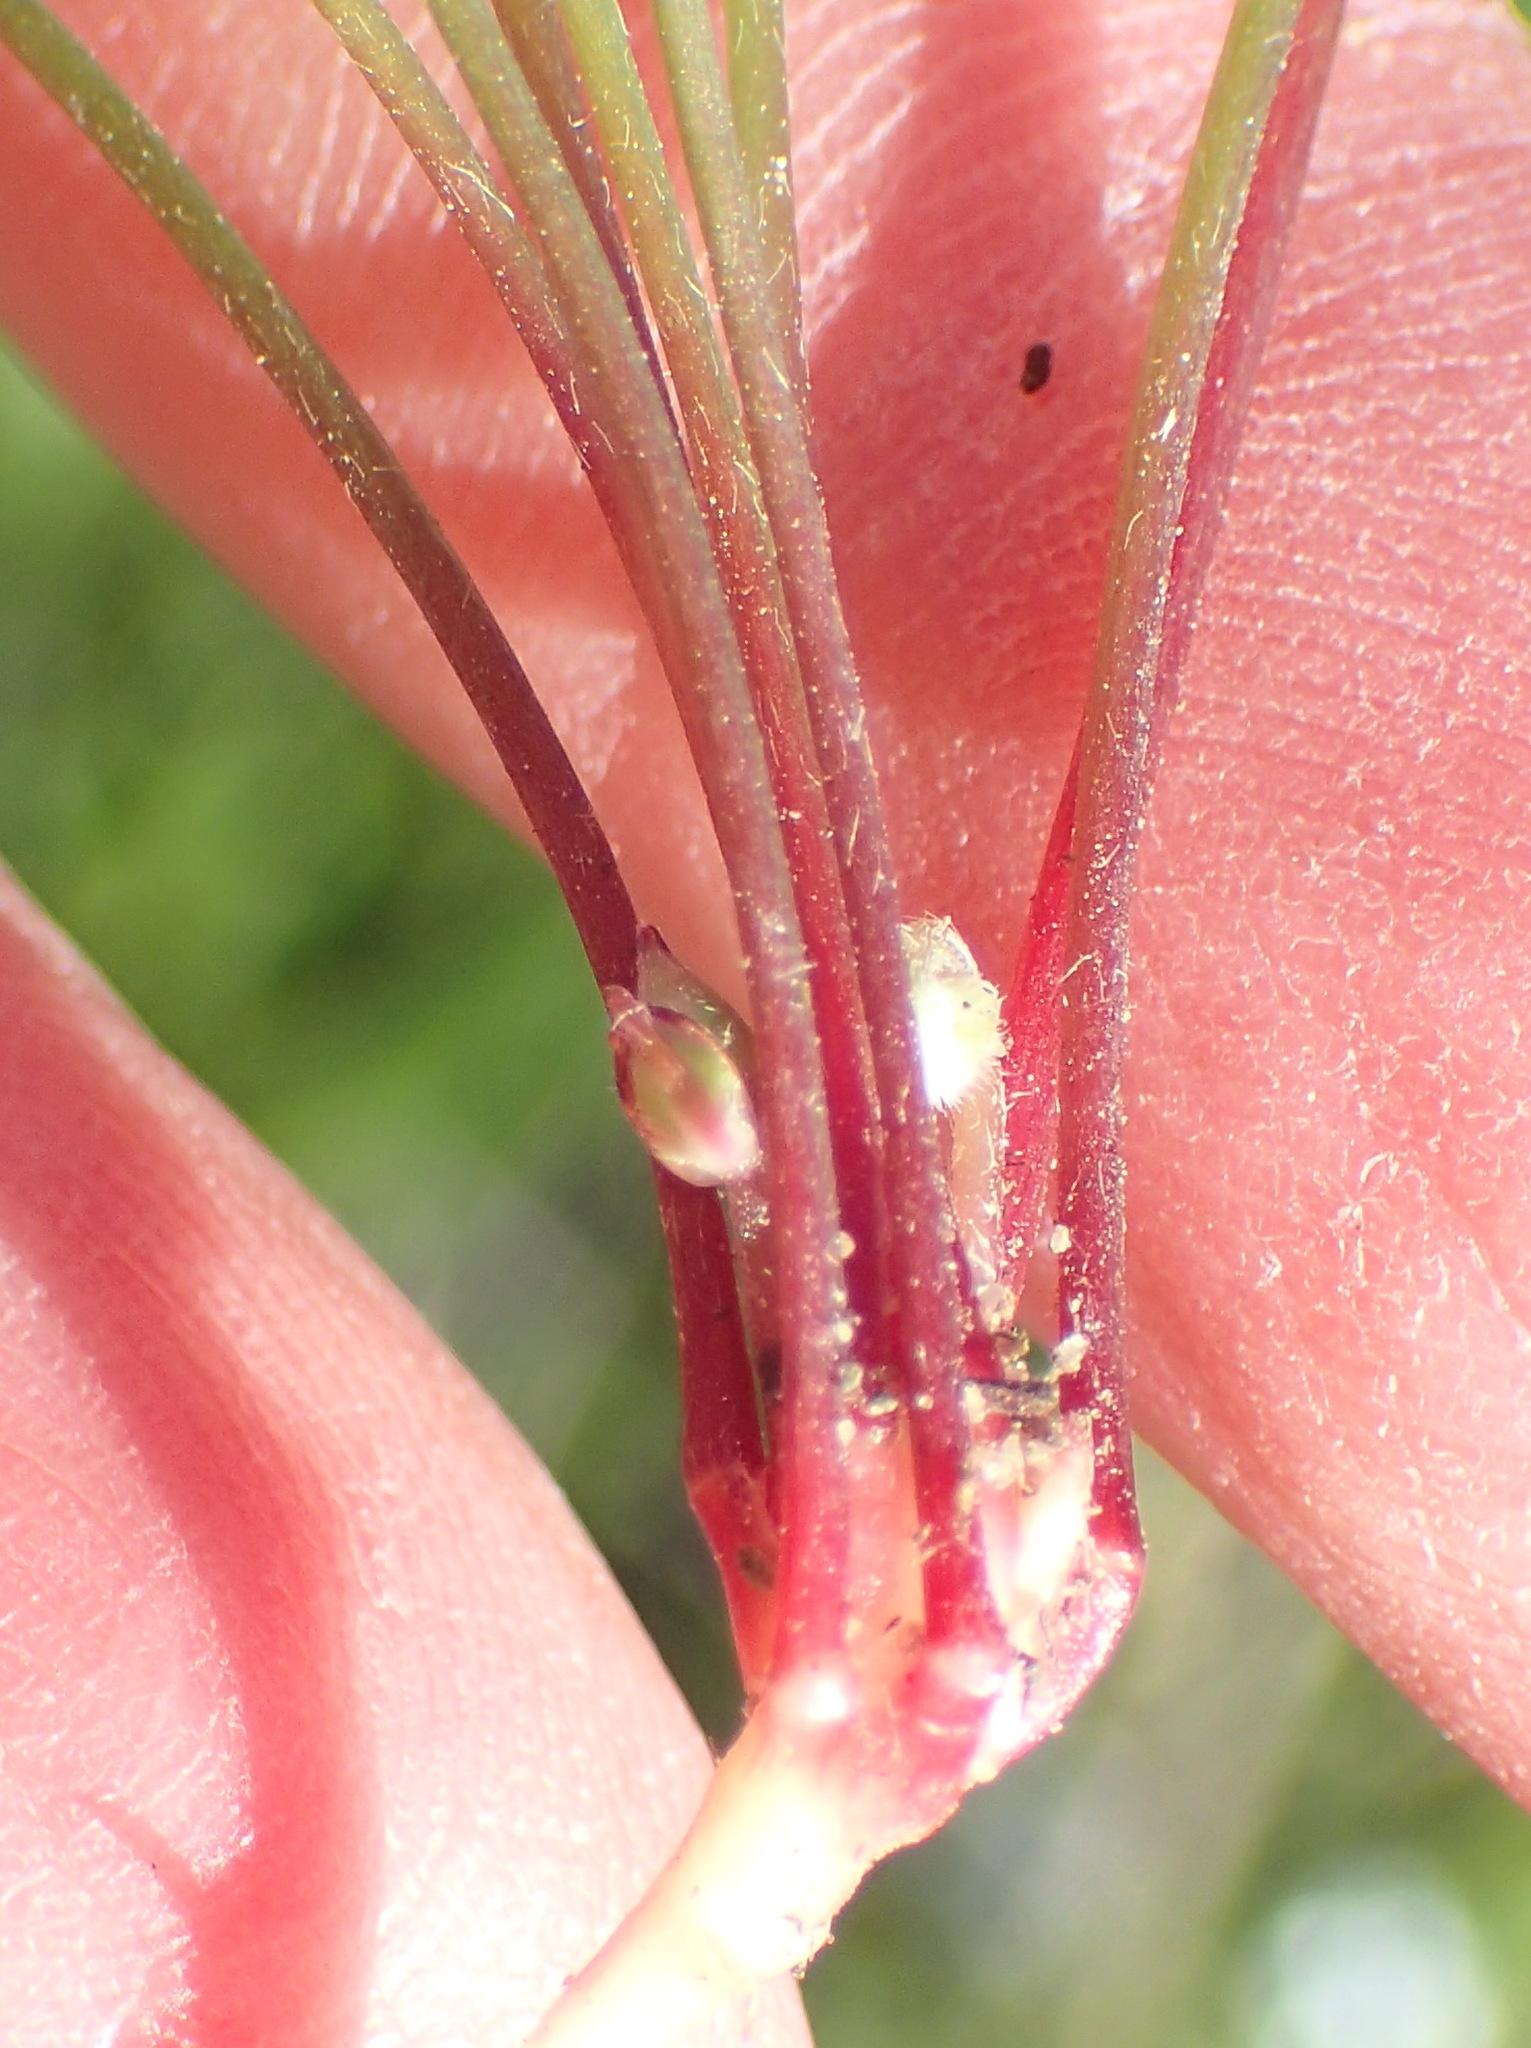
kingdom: Plantae
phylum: Tracheophyta
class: Magnoliopsida
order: Oxalidales
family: Oxalidaceae
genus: Oxalis
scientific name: Oxalis caprina
